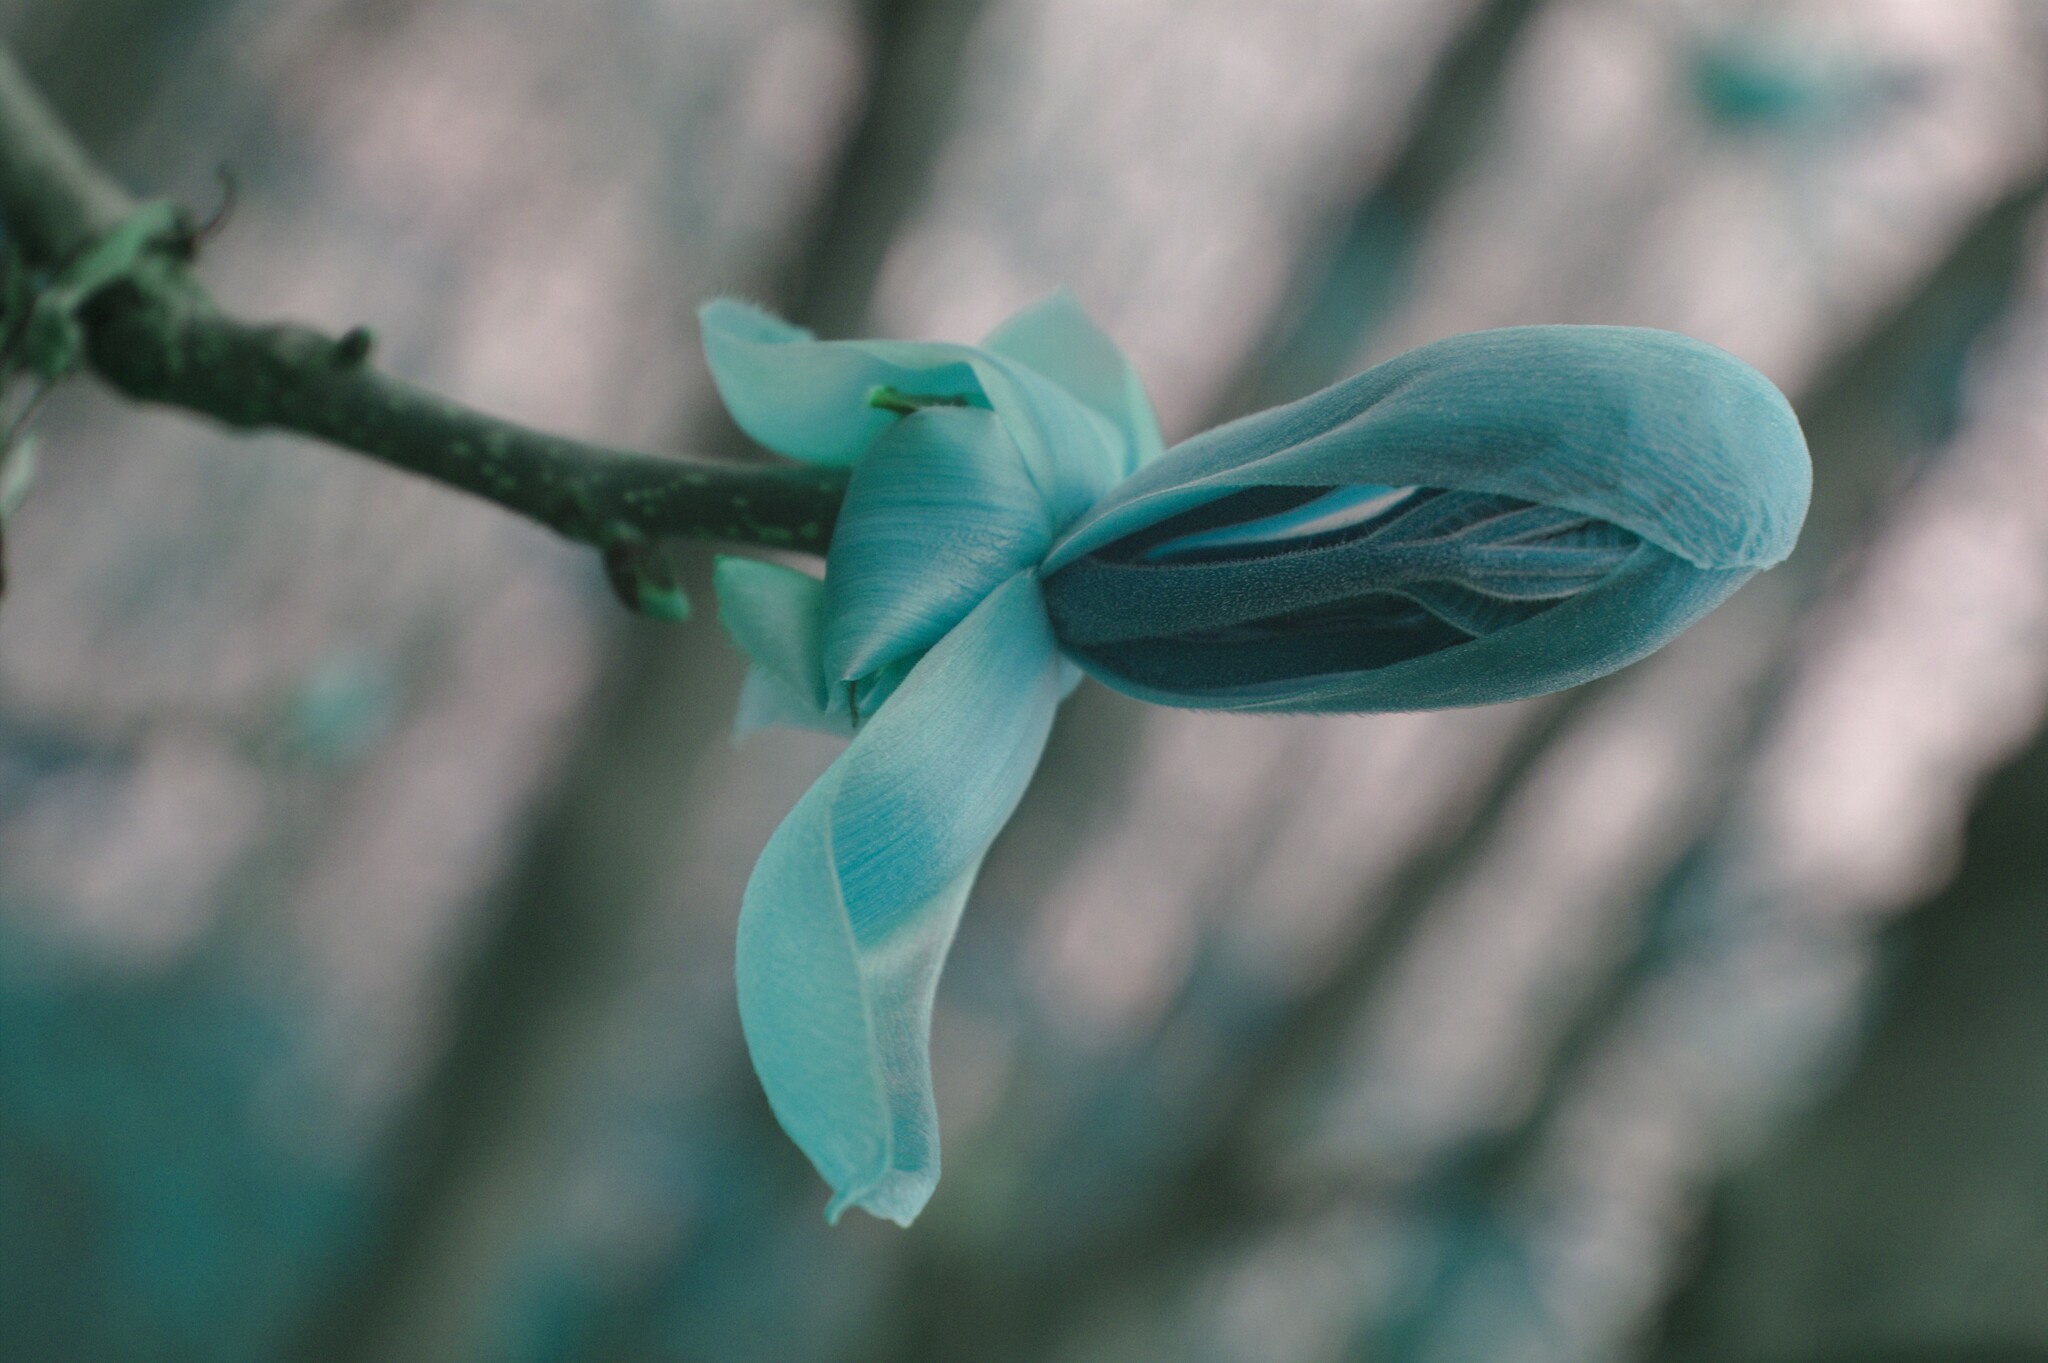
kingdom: Plantae
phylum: Tracheophyta
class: Magnoliopsida
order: Fagales
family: Juglandaceae
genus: Carya
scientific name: Carya ovata
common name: Shagbark hickory
